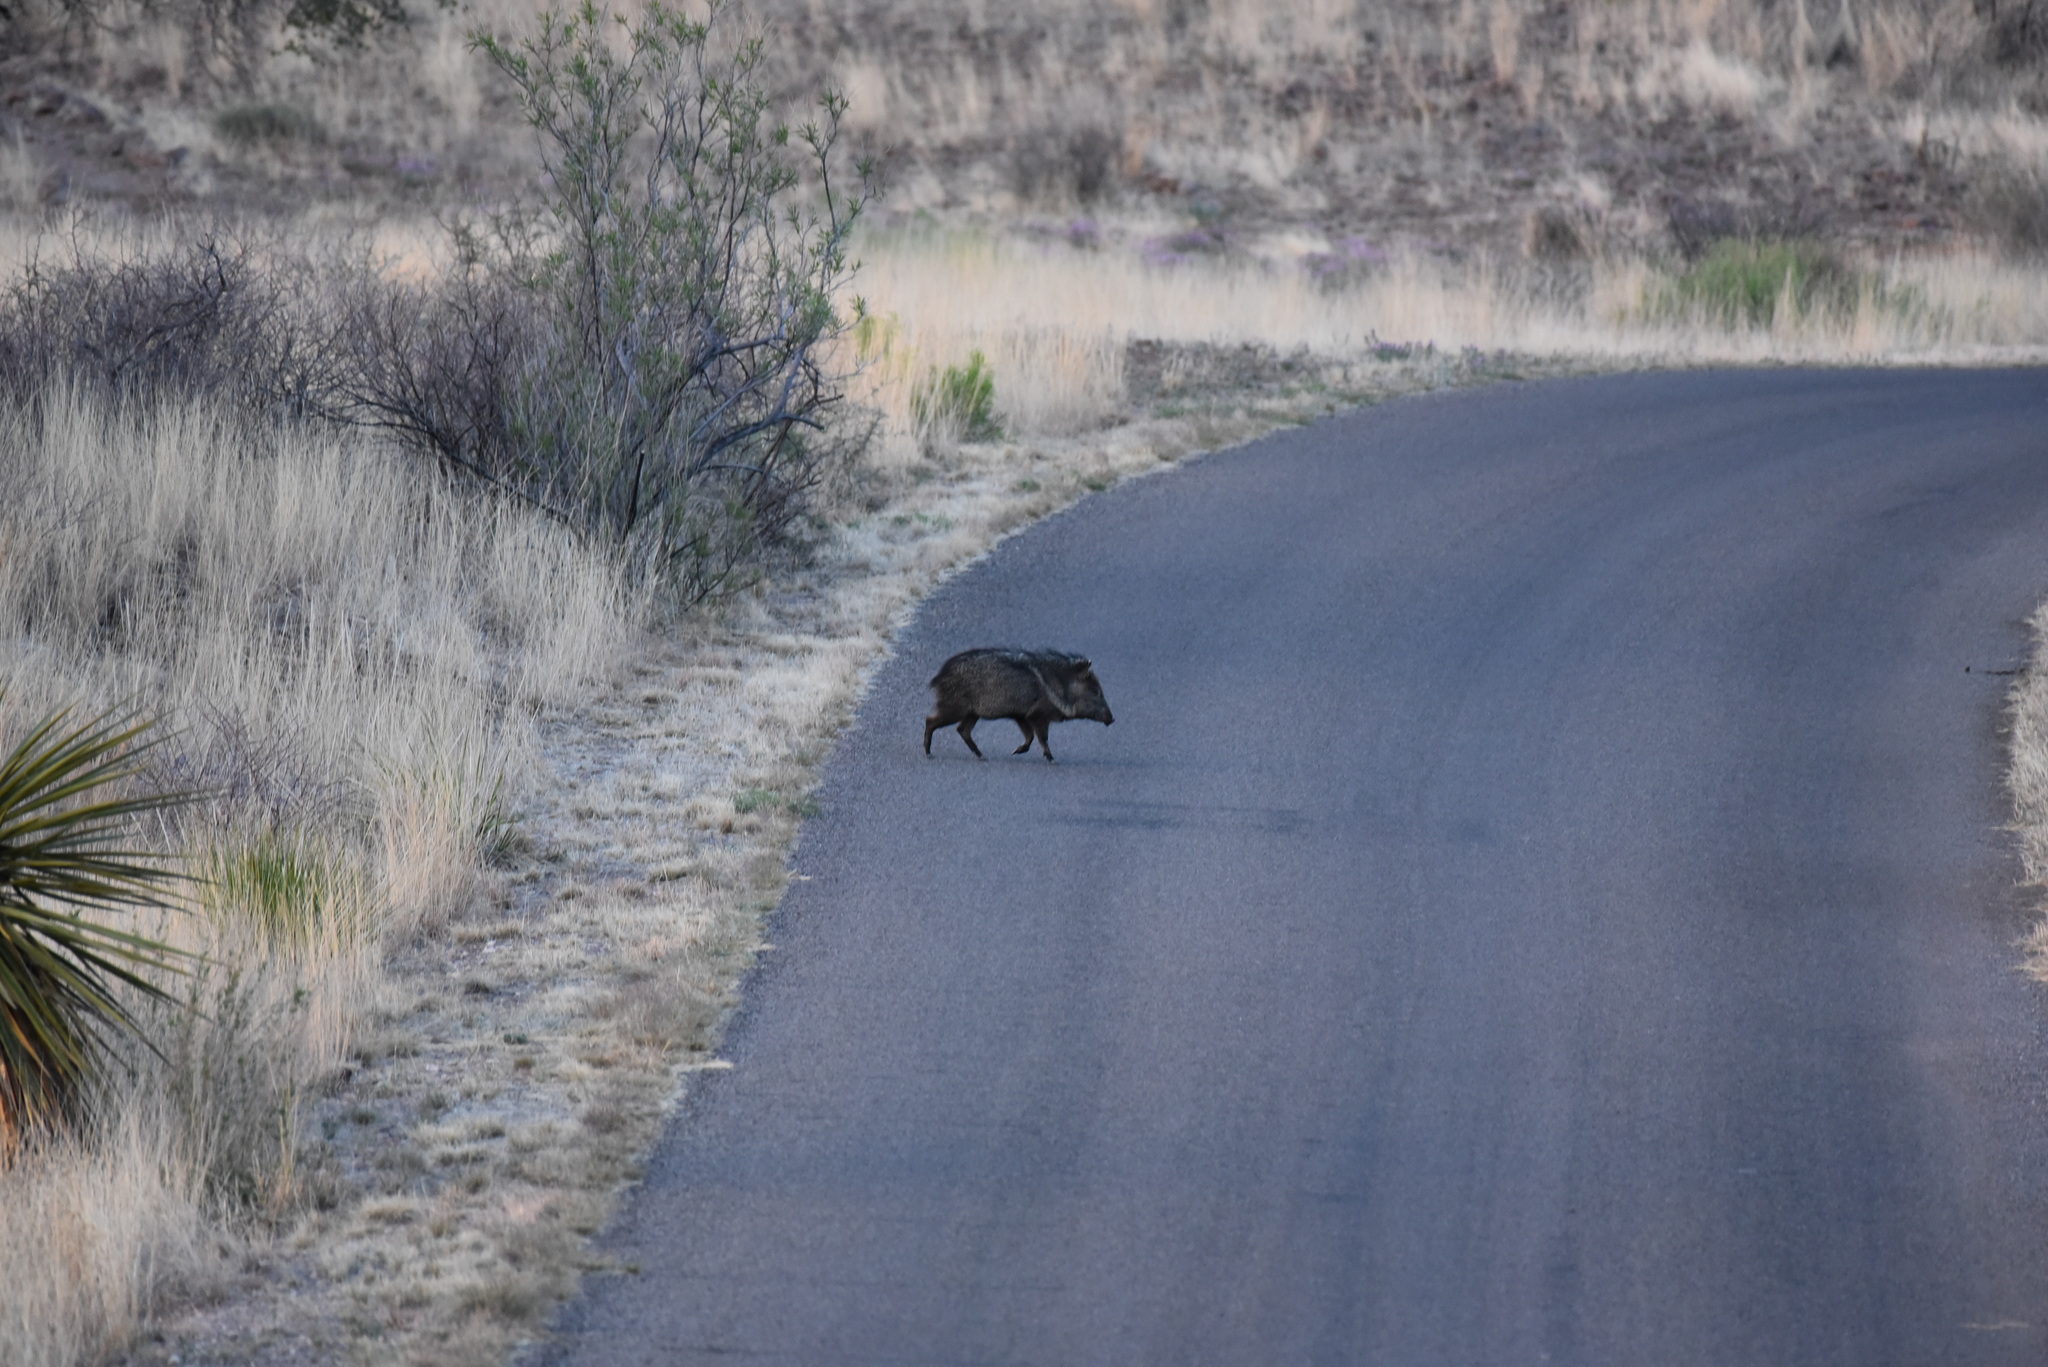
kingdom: Animalia
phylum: Chordata
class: Mammalia
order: Artiodactyla
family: Tayassuidae
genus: Pecari
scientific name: Pecari tajacu
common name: Collared peccary
